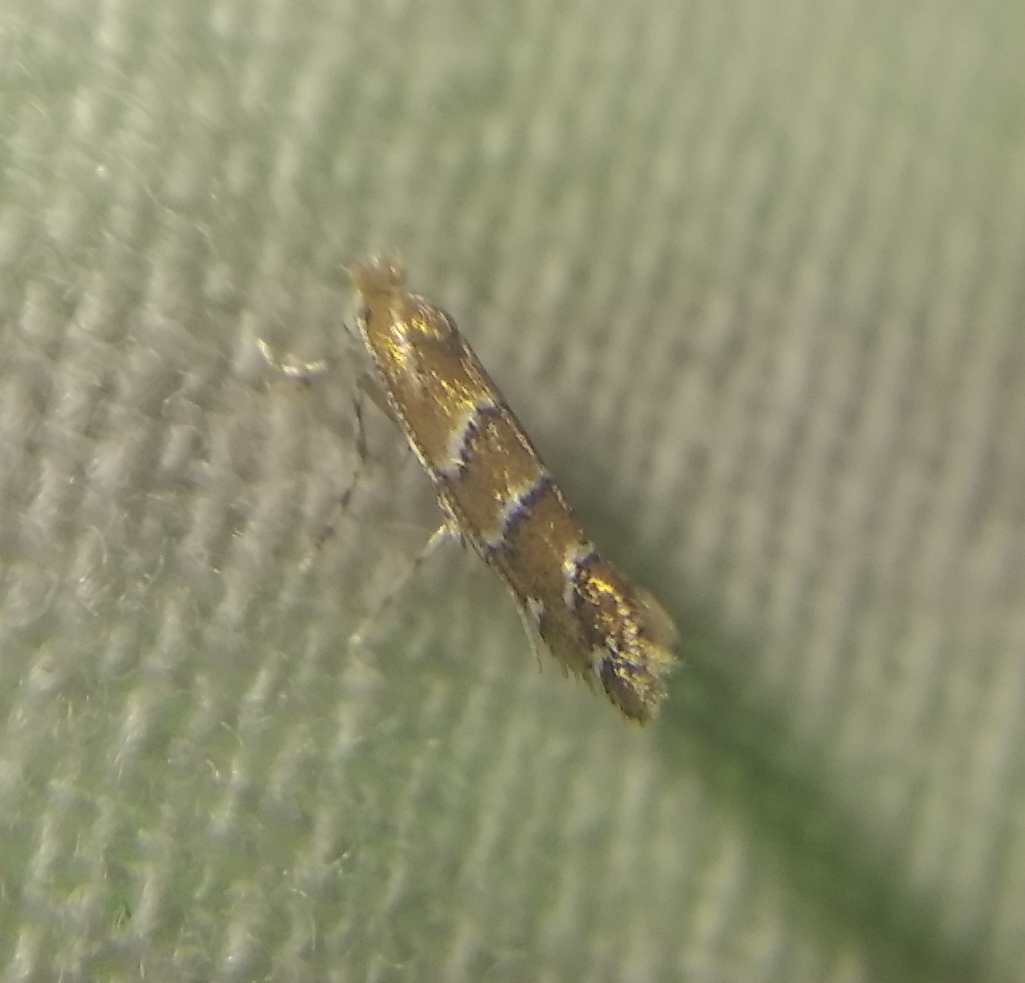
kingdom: Animalia
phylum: Arthropoda
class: Insecta
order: Lepidoptera
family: Gracillariidae
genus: Cameraria
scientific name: Cameraria ohridella
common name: Horse-chestnut leaf-miner
